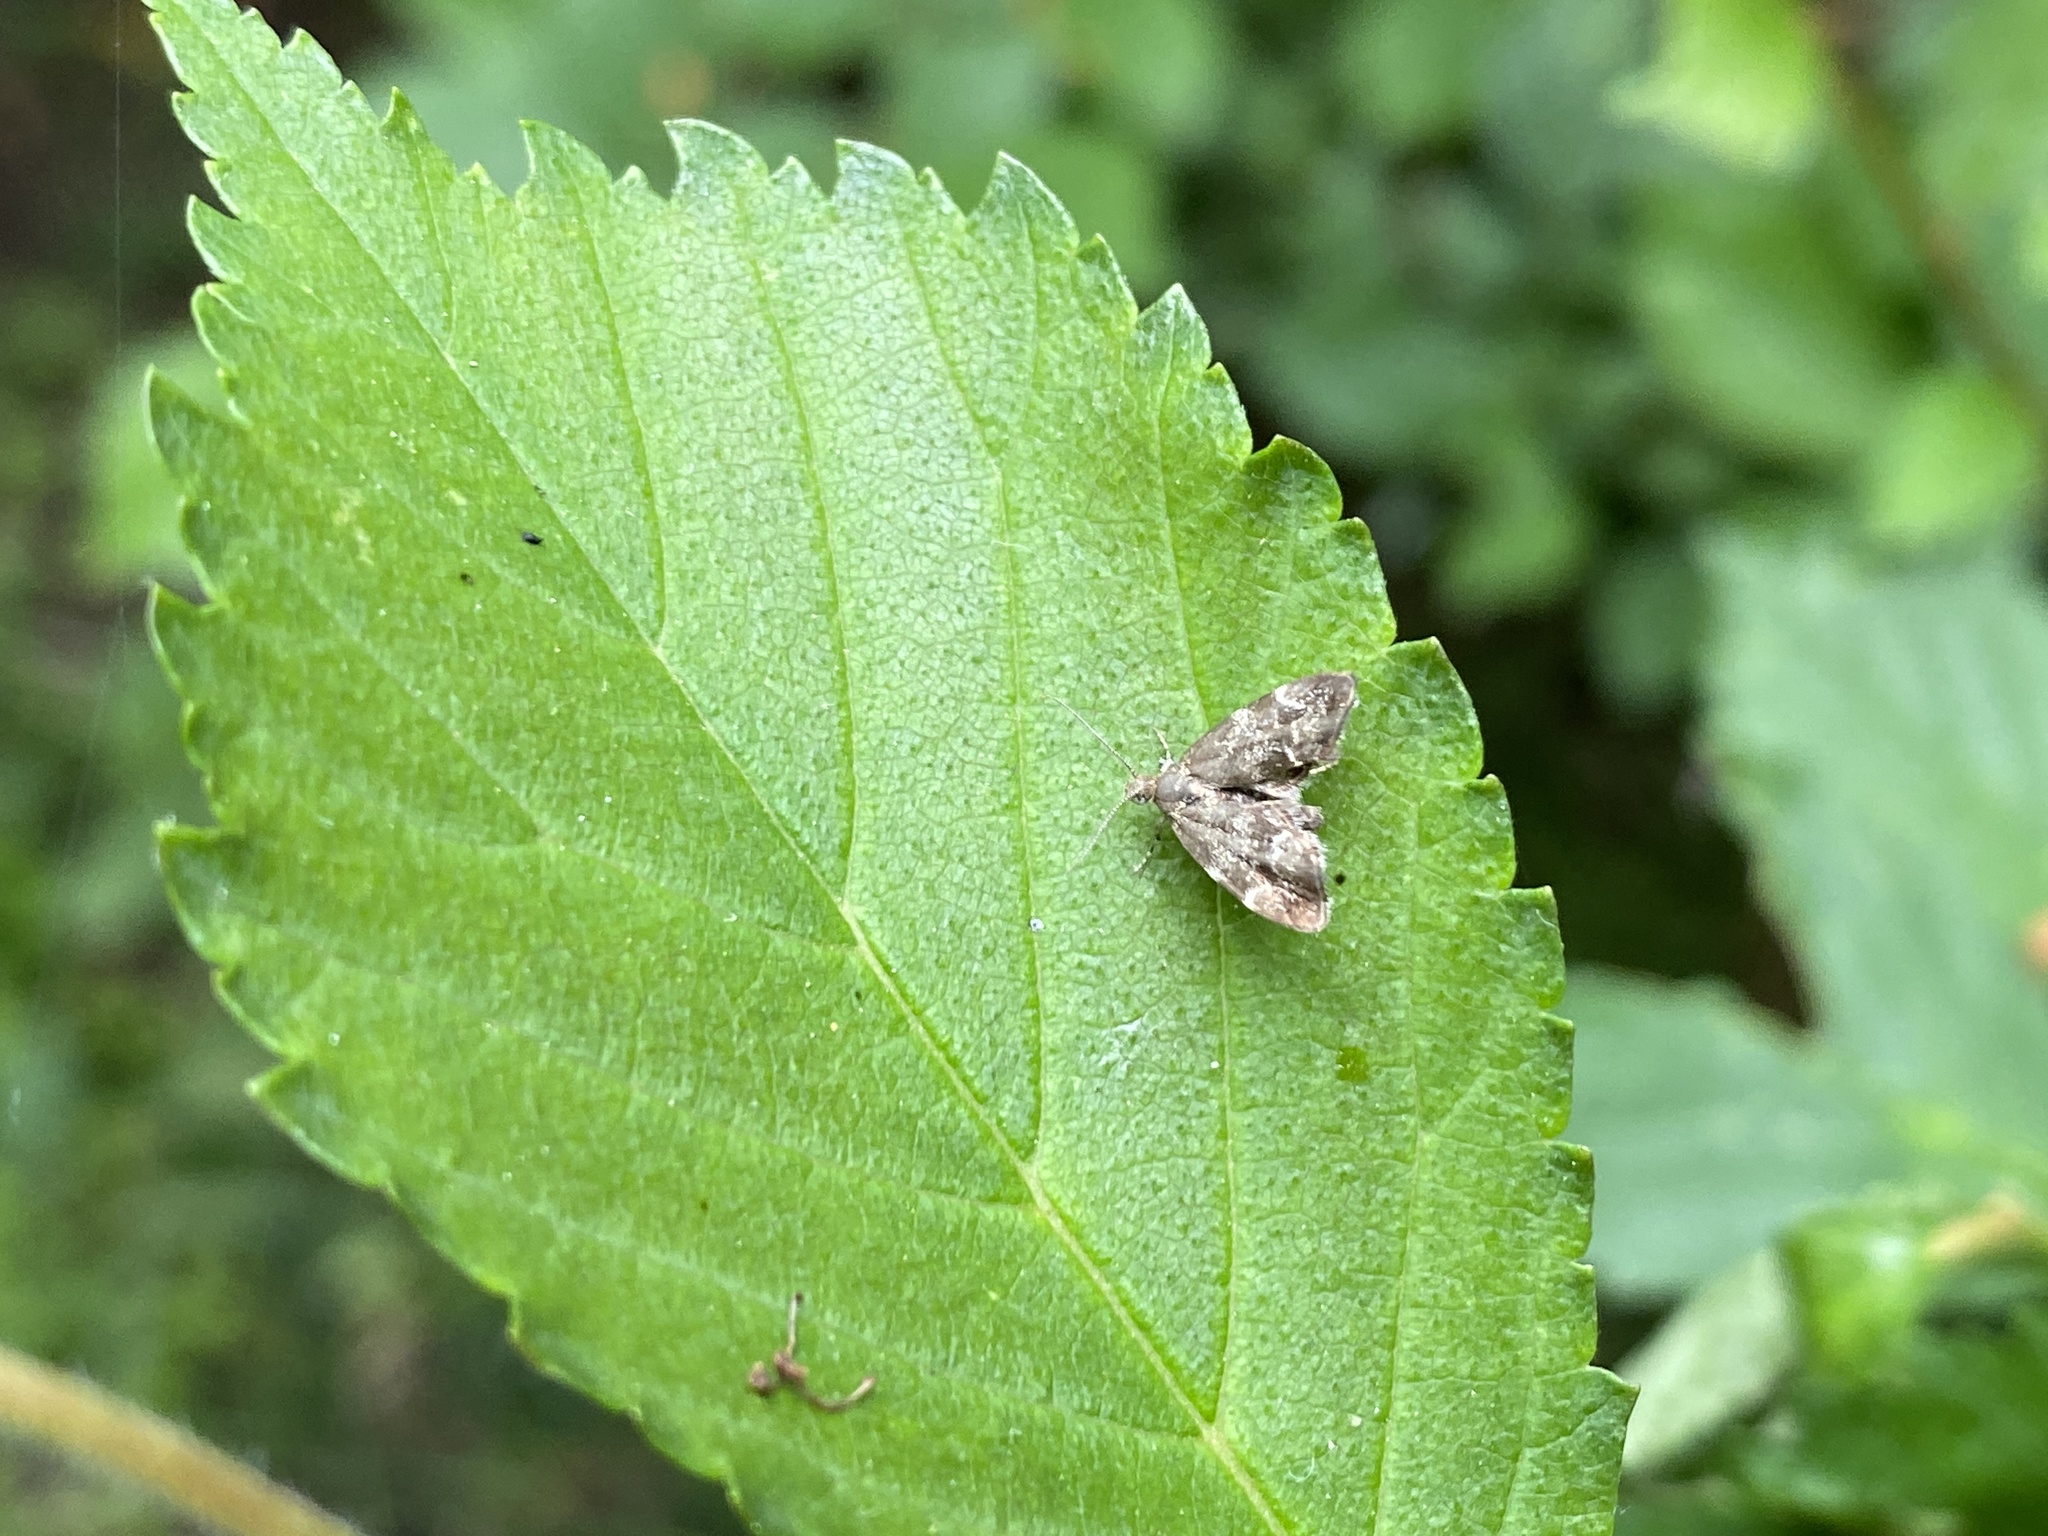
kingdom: Animalia
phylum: Arthropoda
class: Insecta
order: Lepidoptera
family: Choreutidae
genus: Anthophila
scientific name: Anthophila fabriciana
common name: Nettle-tap
